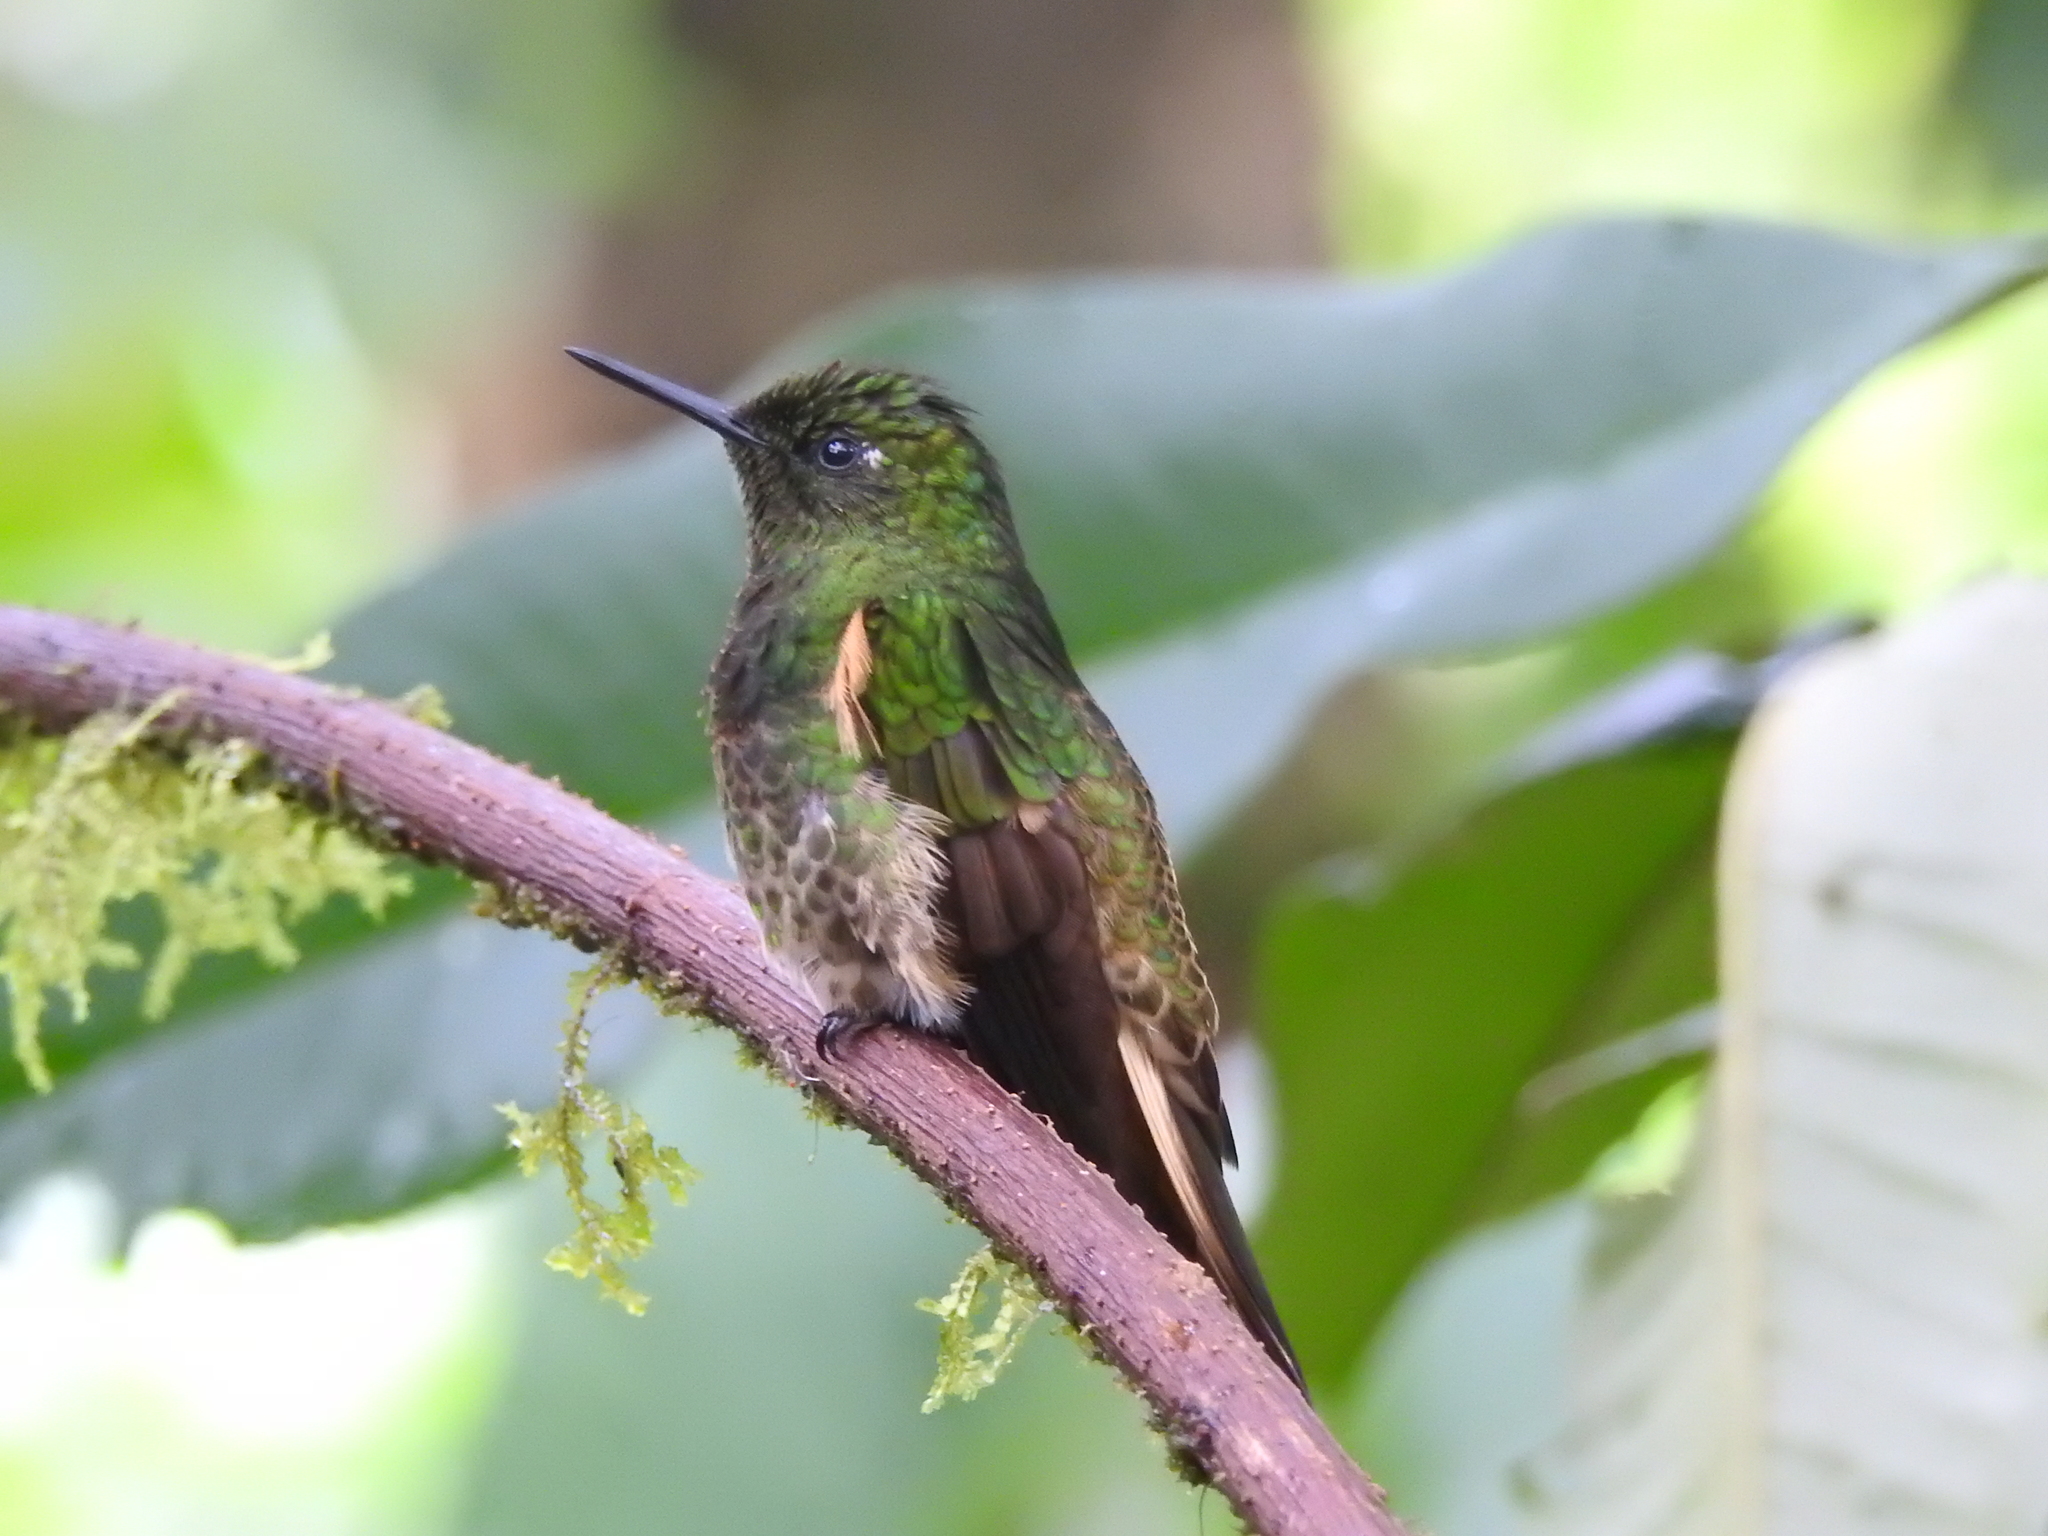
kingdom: Animalia
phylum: Chordata
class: Aves
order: Apodiformes
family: Trochilidae
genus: Boissonneaua
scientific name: Boissonneaua flavescens
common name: Buff-tailed coronet
